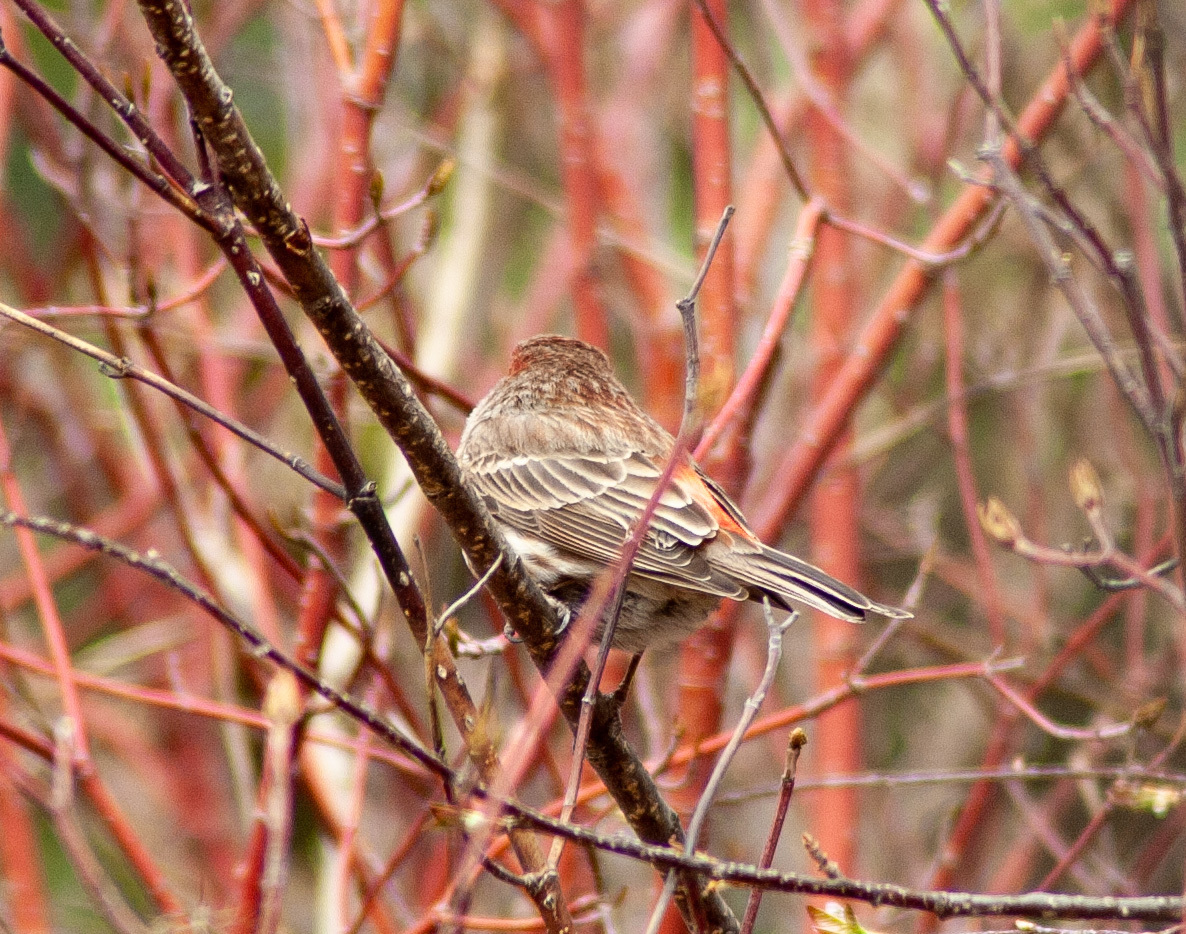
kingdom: Animalia
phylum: Chordata
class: Aves
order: Passeriformes
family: Fringillidae
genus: Haemorhous
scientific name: Haemorhous mexicanus
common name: House finch
